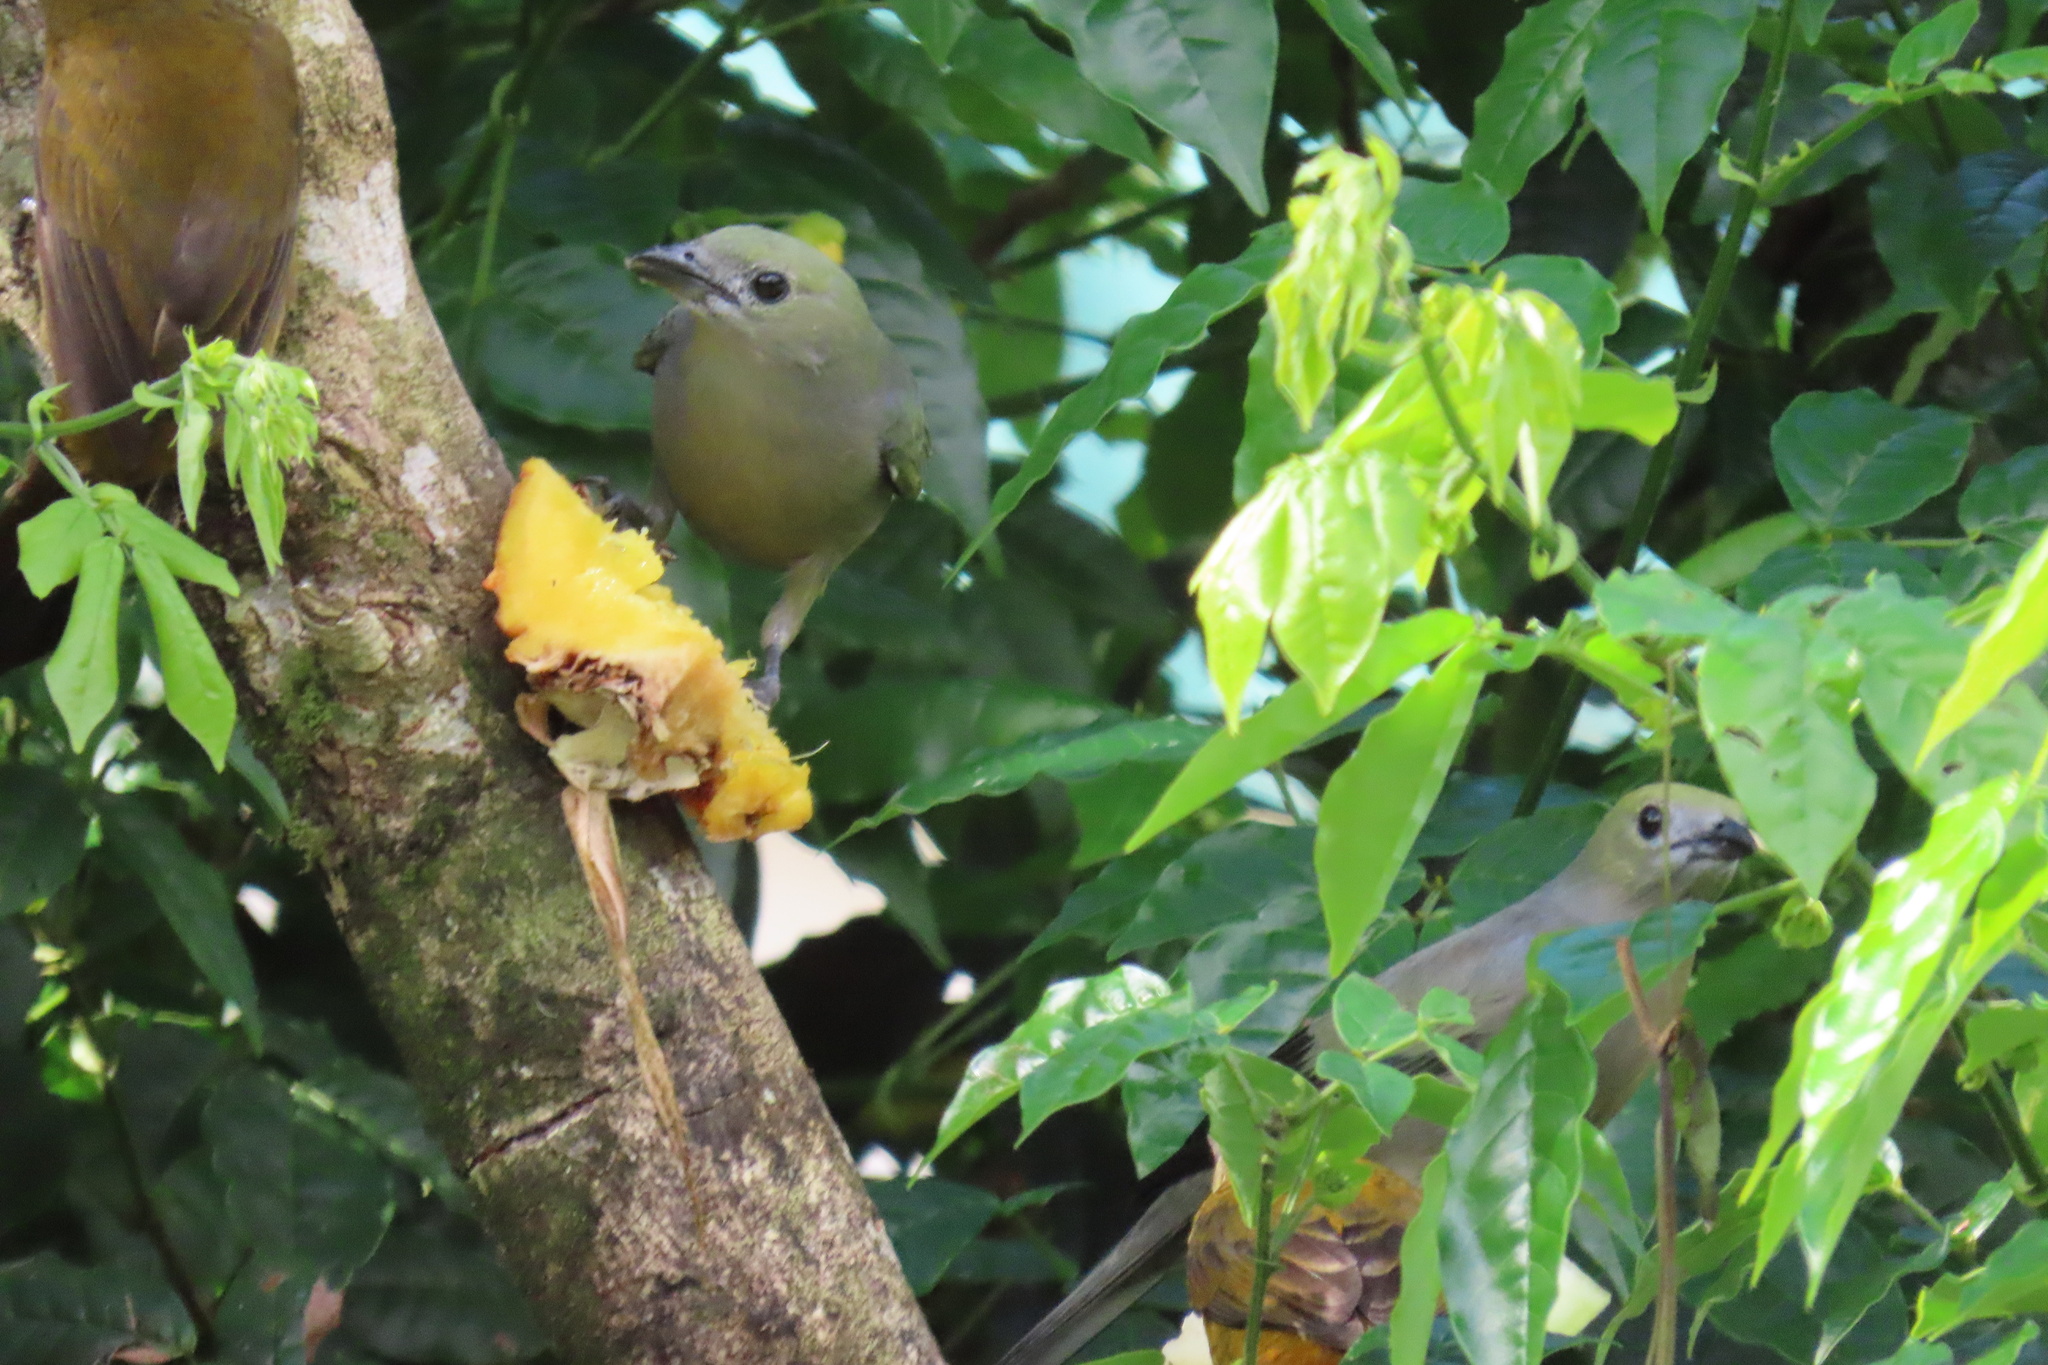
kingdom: Animalia
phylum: Chordata
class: Aves
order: Passeriformes
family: Thraupidae
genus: Thraupis
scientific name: Thraupis palmarum
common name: Palm tanager
